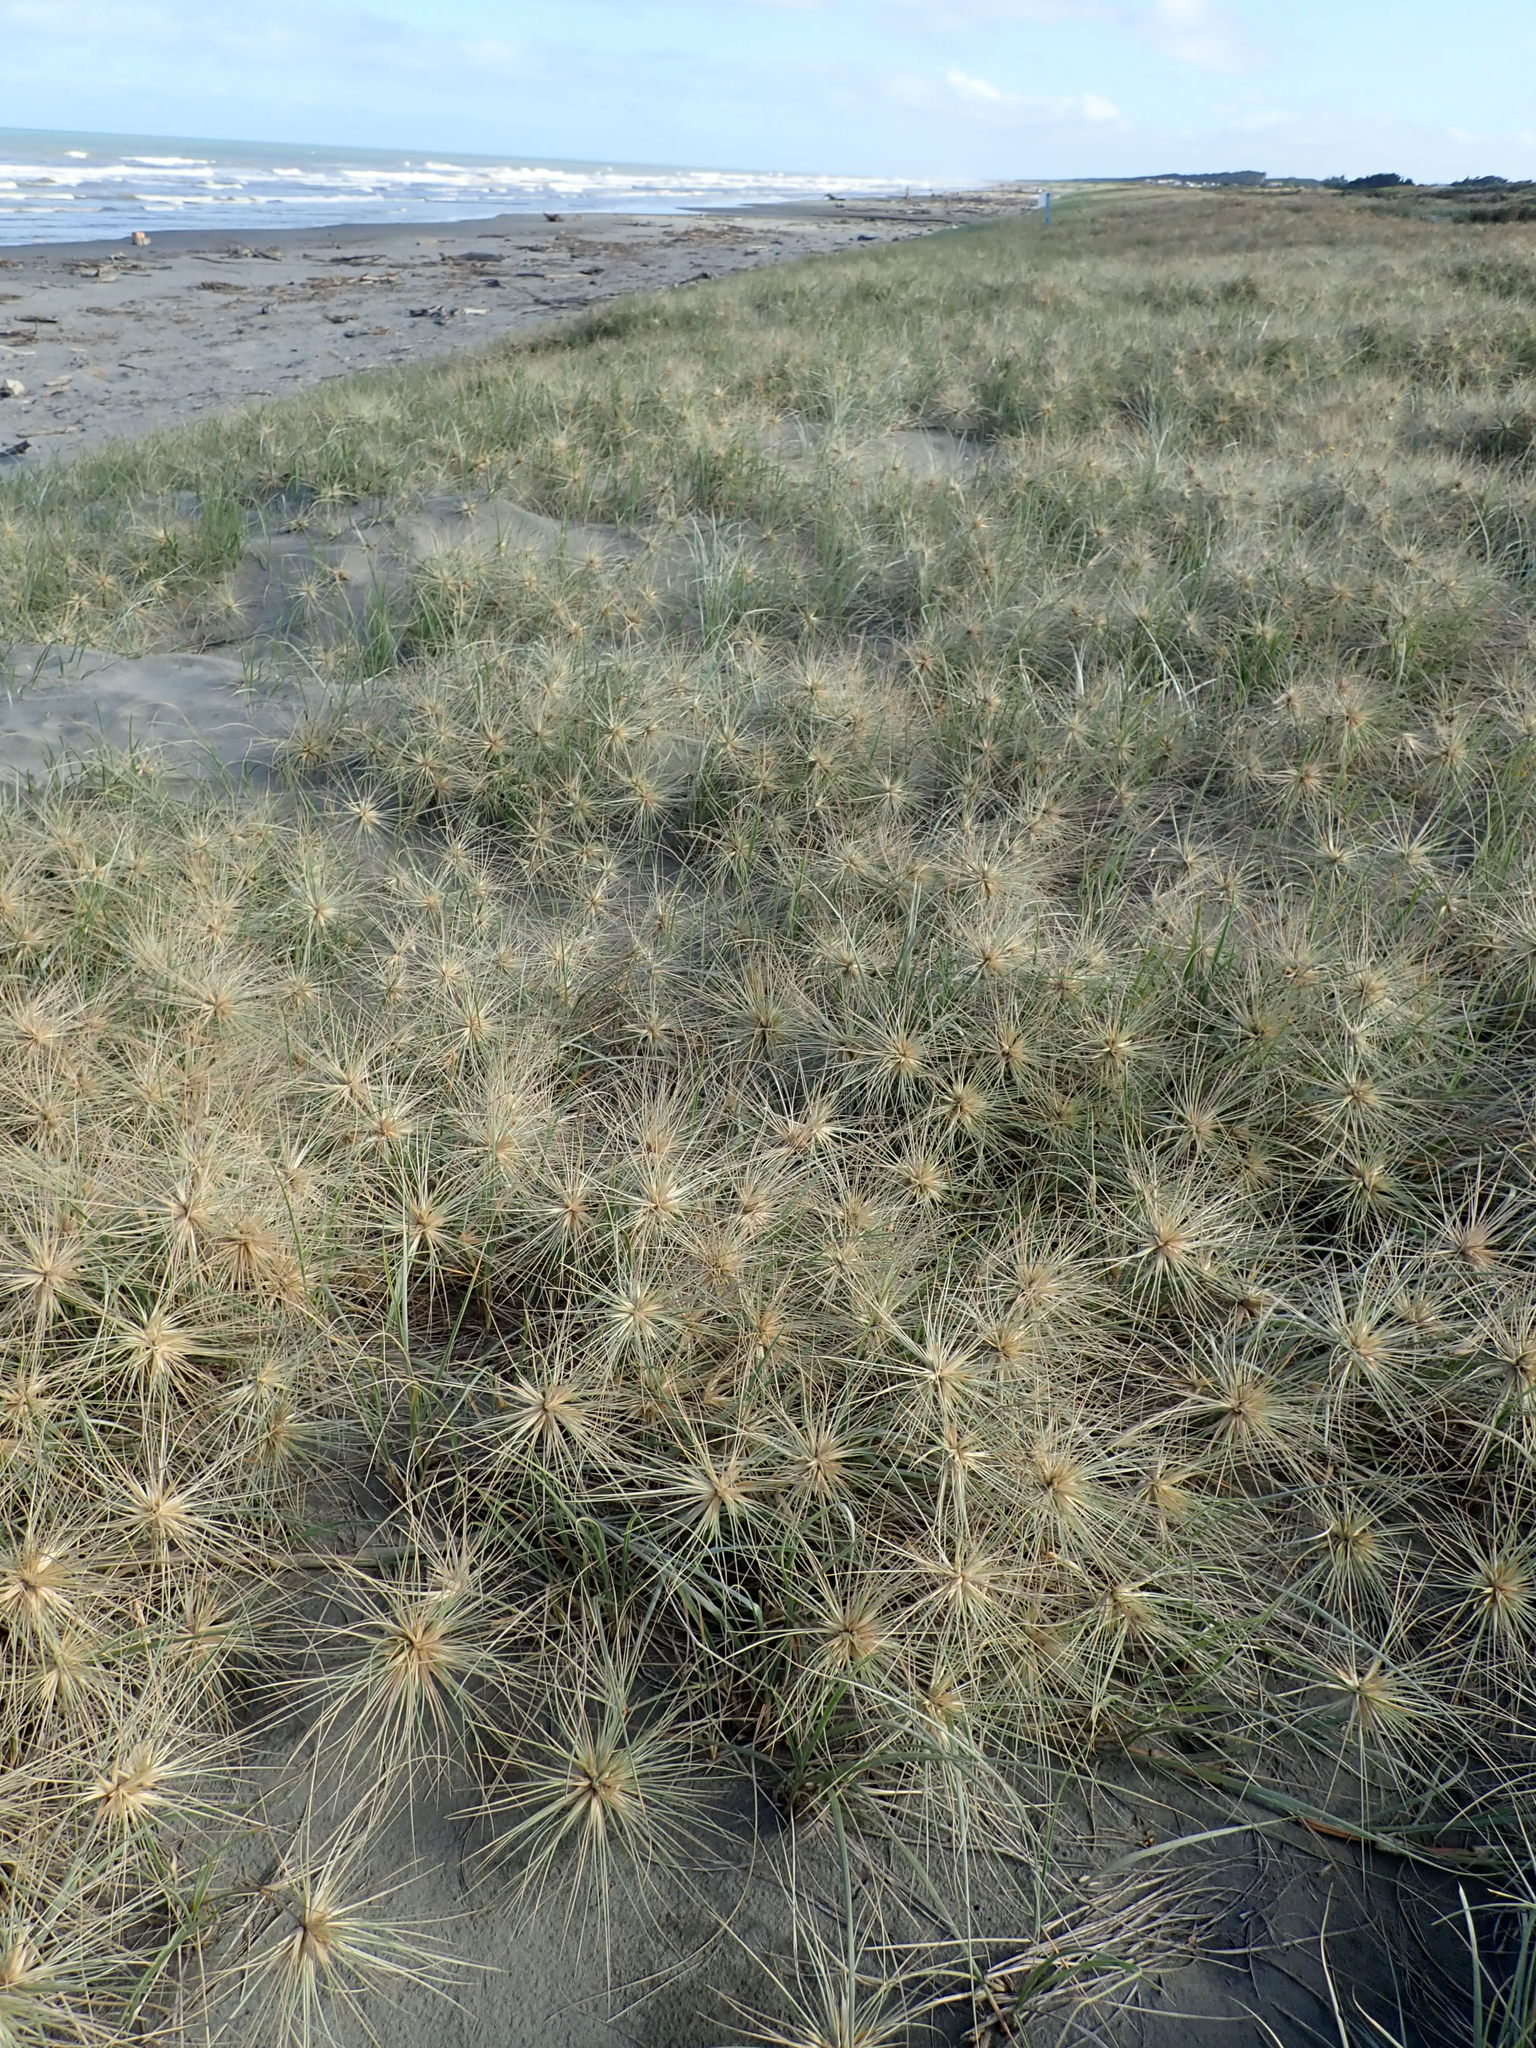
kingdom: Plantae
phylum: Tracheophyta
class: Liliopsida
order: Poales
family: Poaceae
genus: Spinifex
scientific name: Spinifex sericeus
